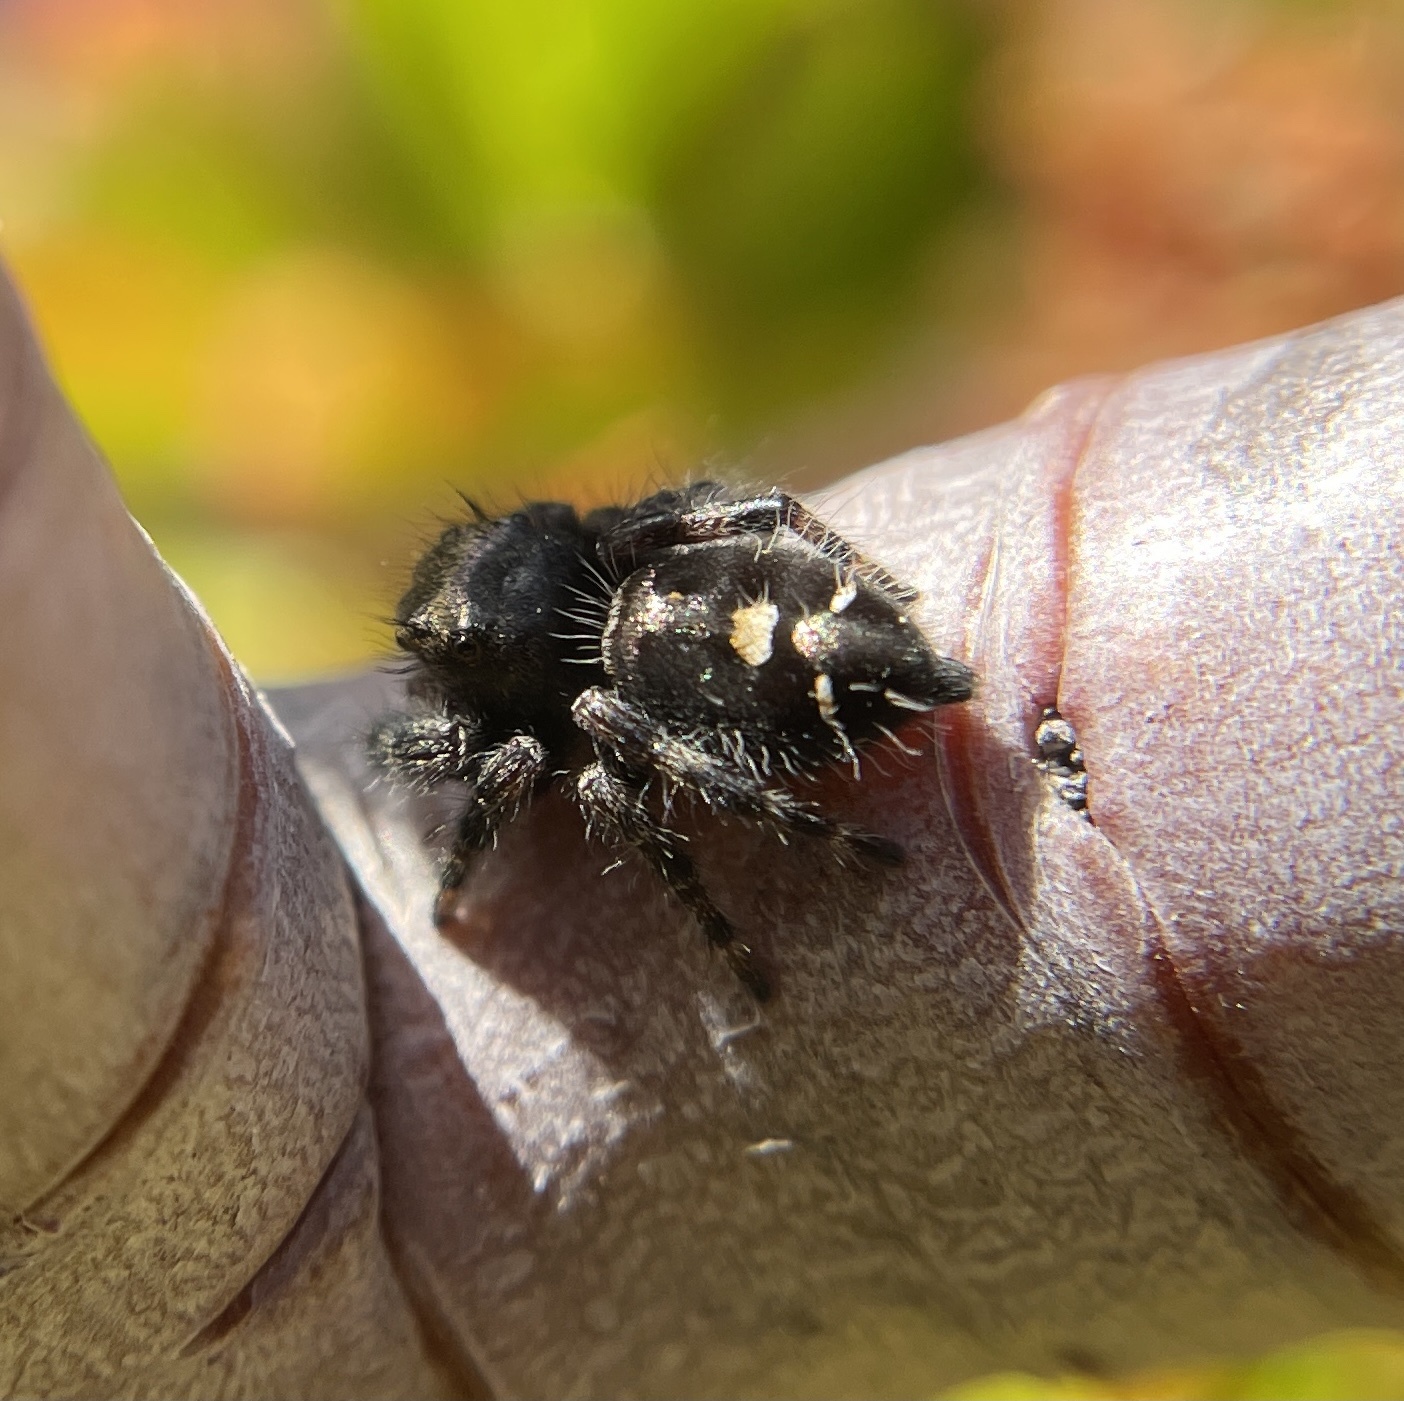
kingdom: Animalia
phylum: Arthropoda
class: Arachnida
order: Araneae
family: Salticidae
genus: Phidippus
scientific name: Phidippus audax
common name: Bold jumper
